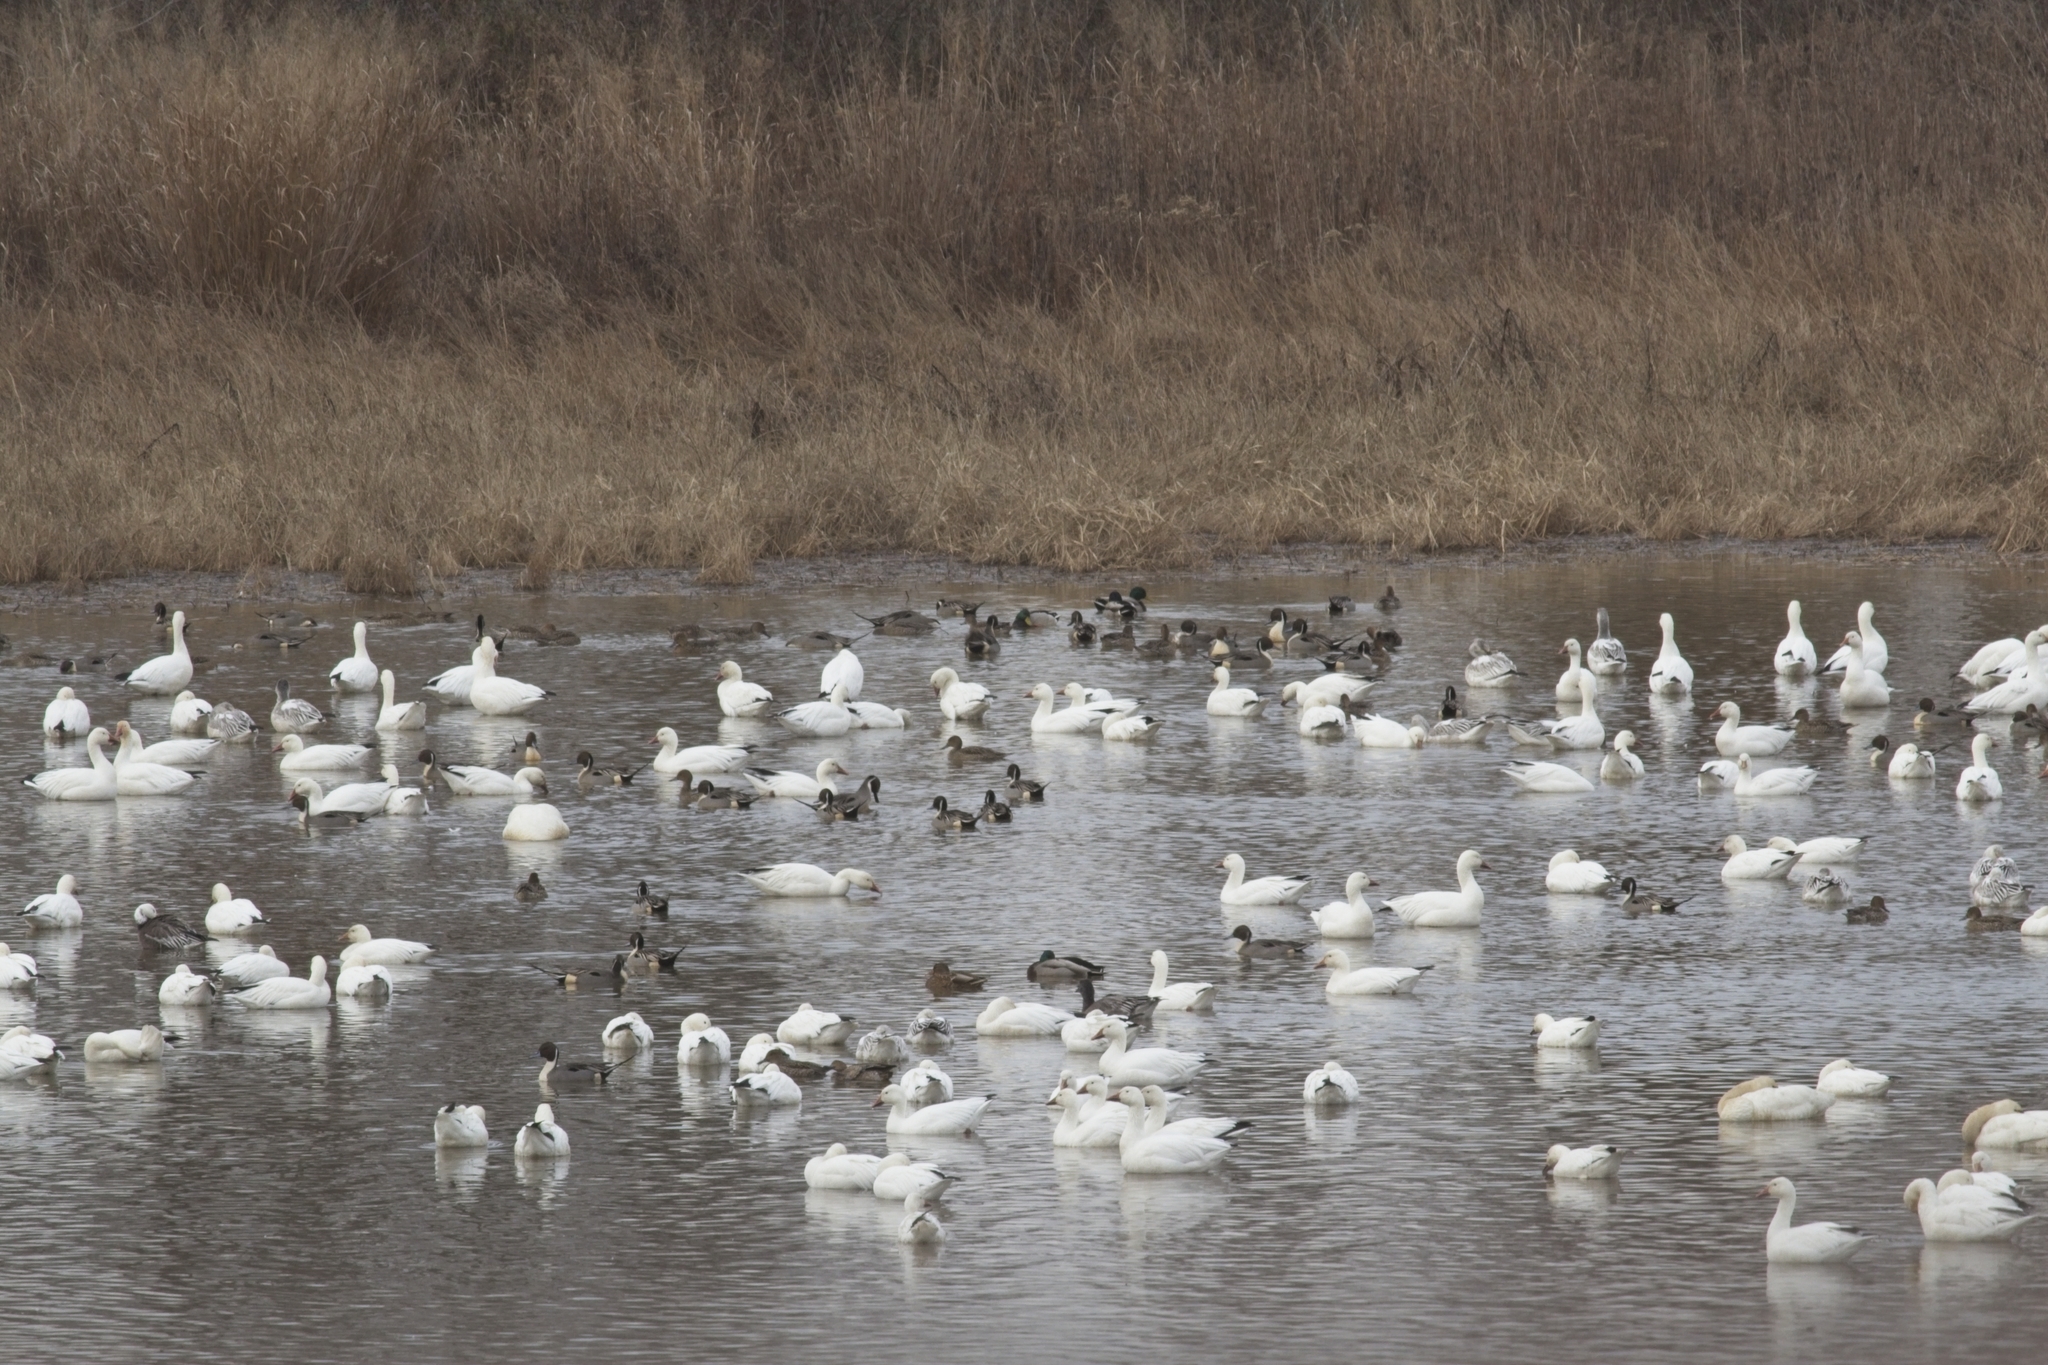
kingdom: Animalia
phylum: Chordata
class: Aves
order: Anseriformes
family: Anatidae
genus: Anser
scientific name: Anser caerulescens
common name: Snow goose
